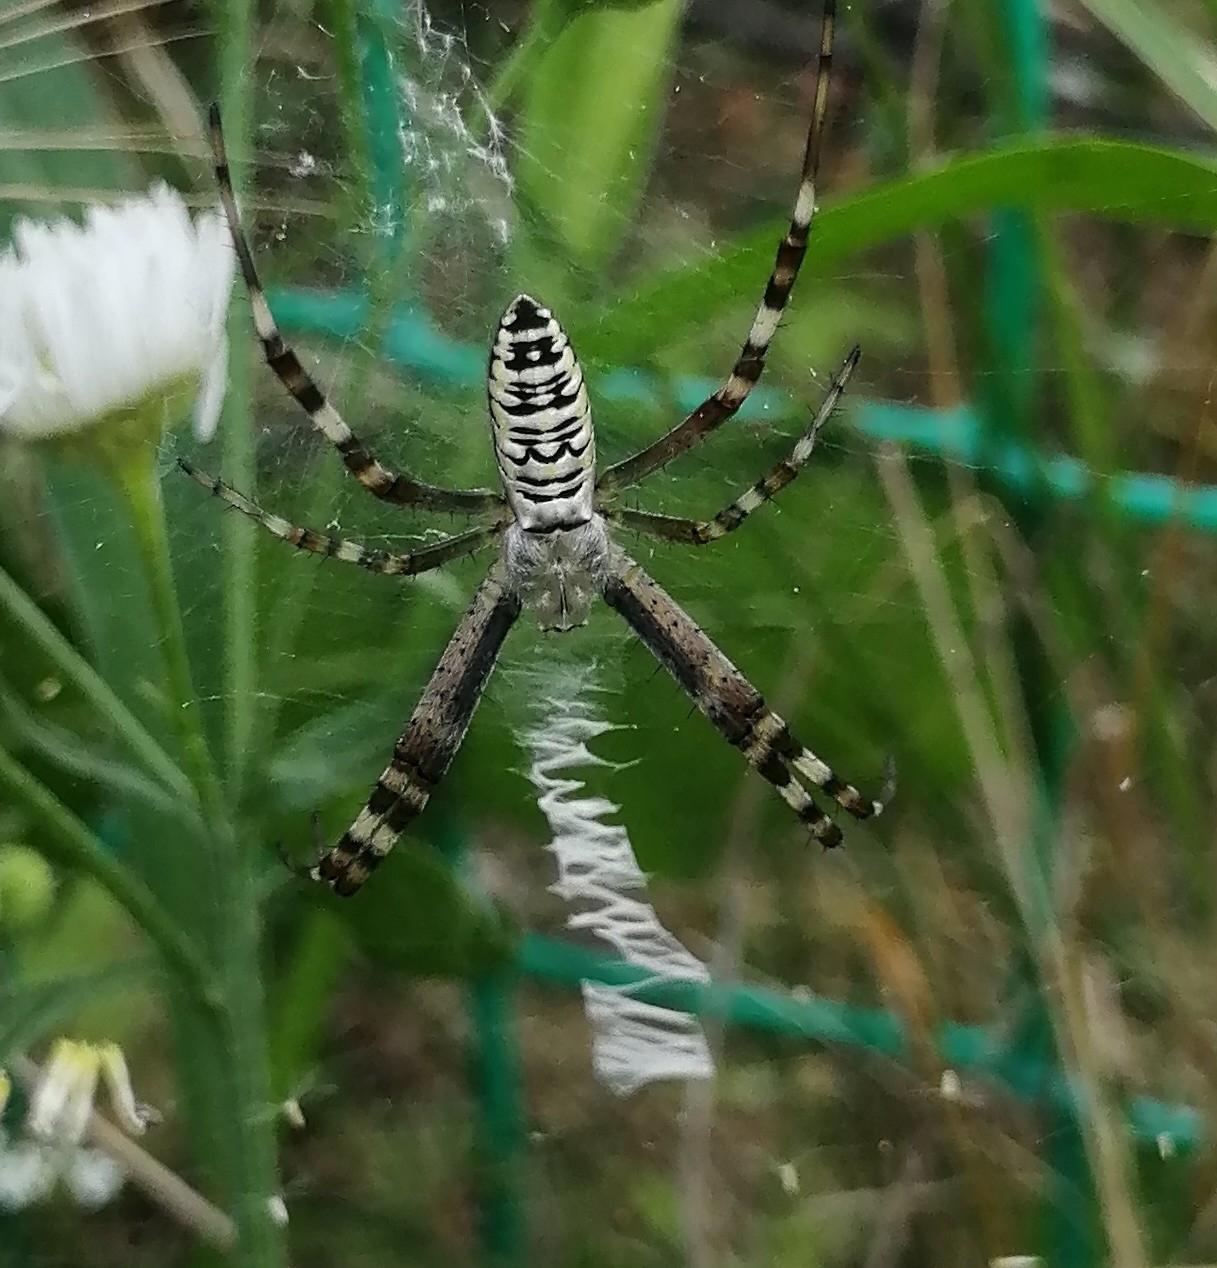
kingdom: Animalia
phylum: Arthropoda
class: Arachnida
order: Araneae
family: Araneidae
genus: Argiope
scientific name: Argiope bruennichi
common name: Wasp spider
